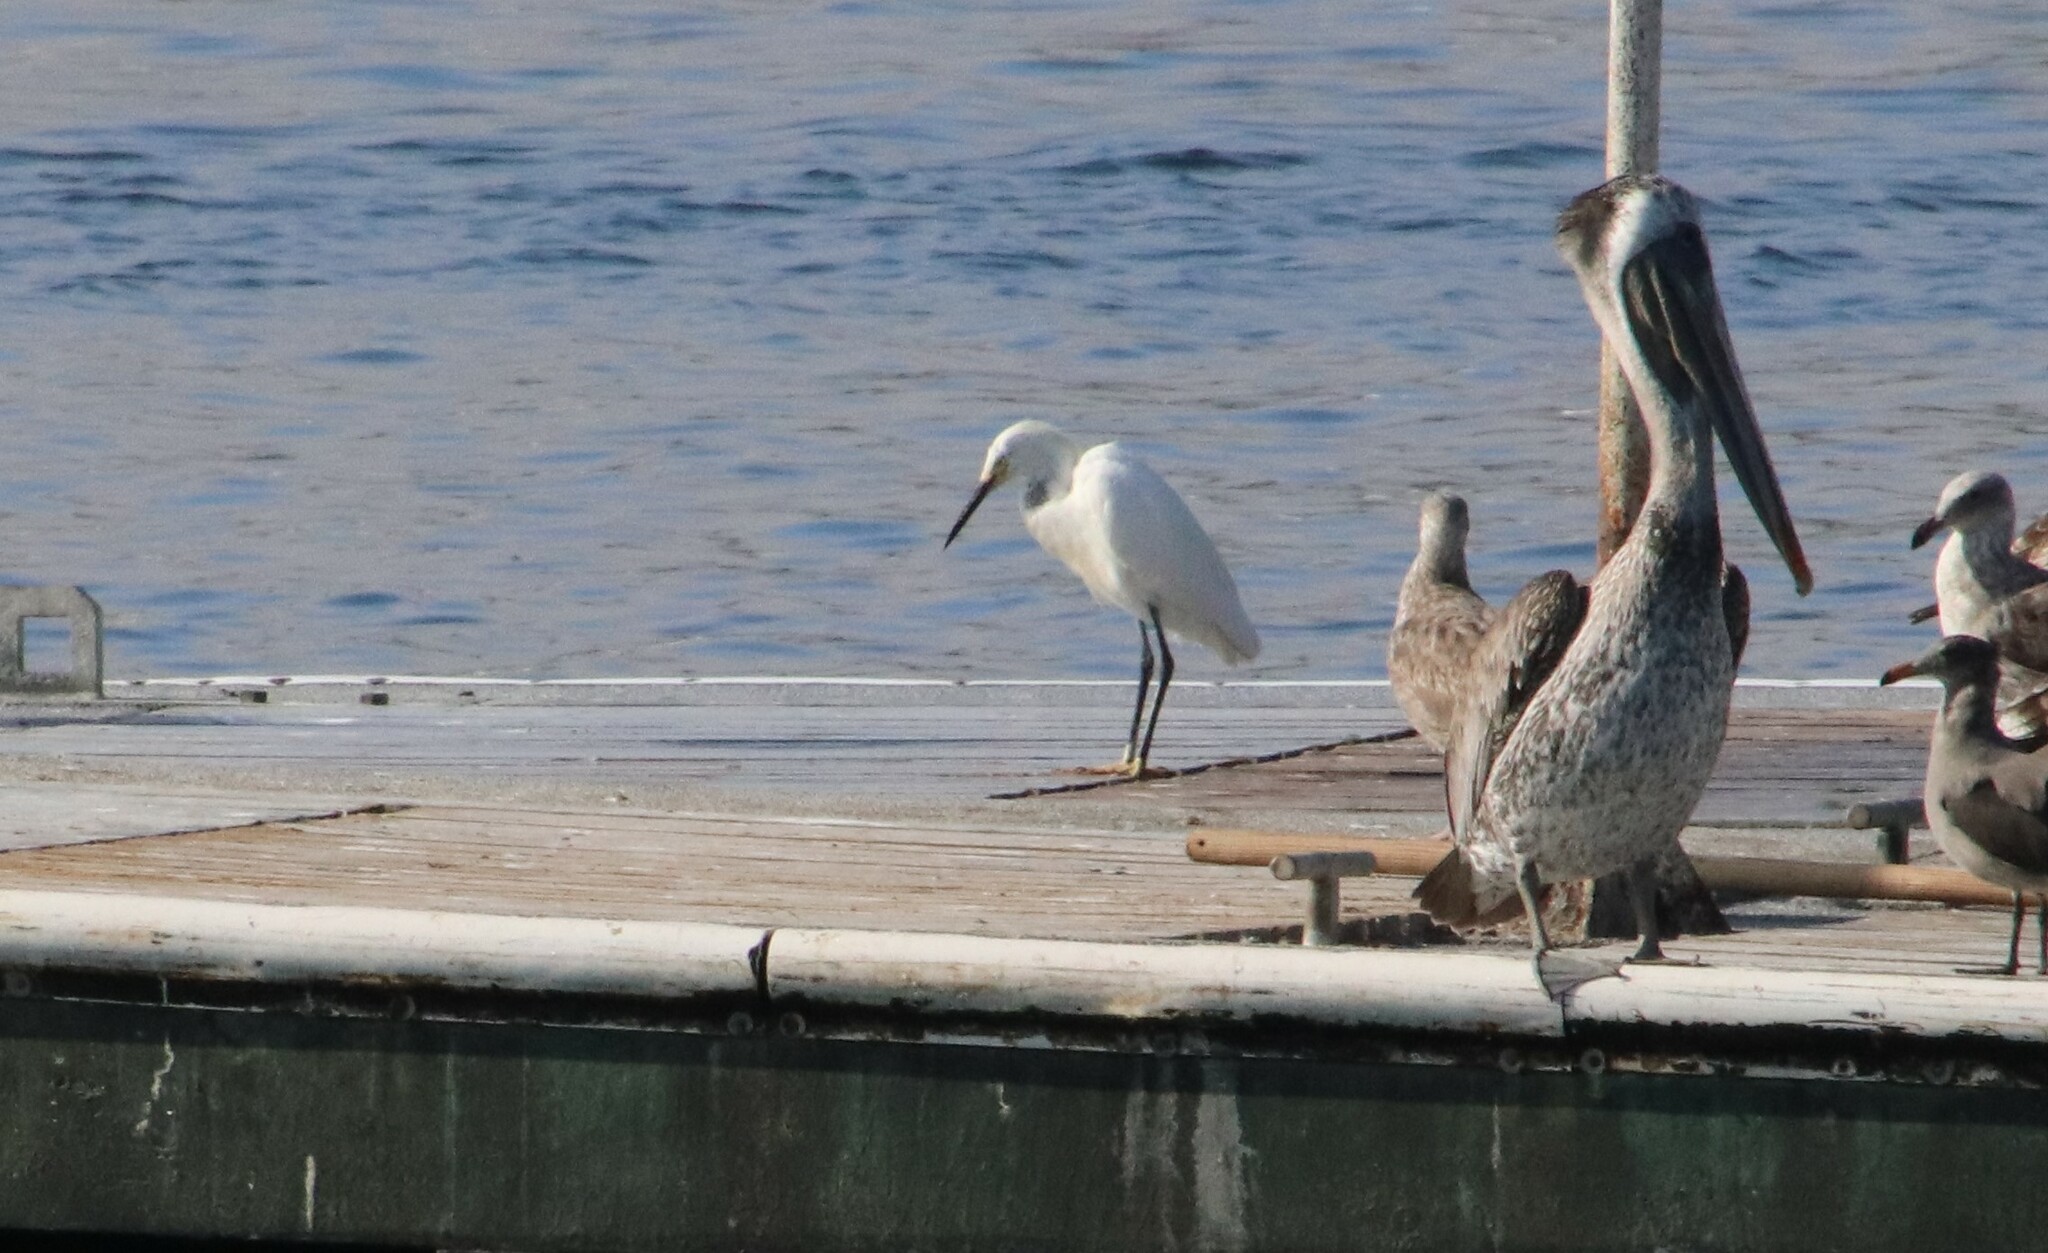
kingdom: Animalia
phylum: Chordata
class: Aves
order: Pelecaniformes
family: Ardeidae
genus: Egretta
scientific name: Egretta thula
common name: Snowy egret
